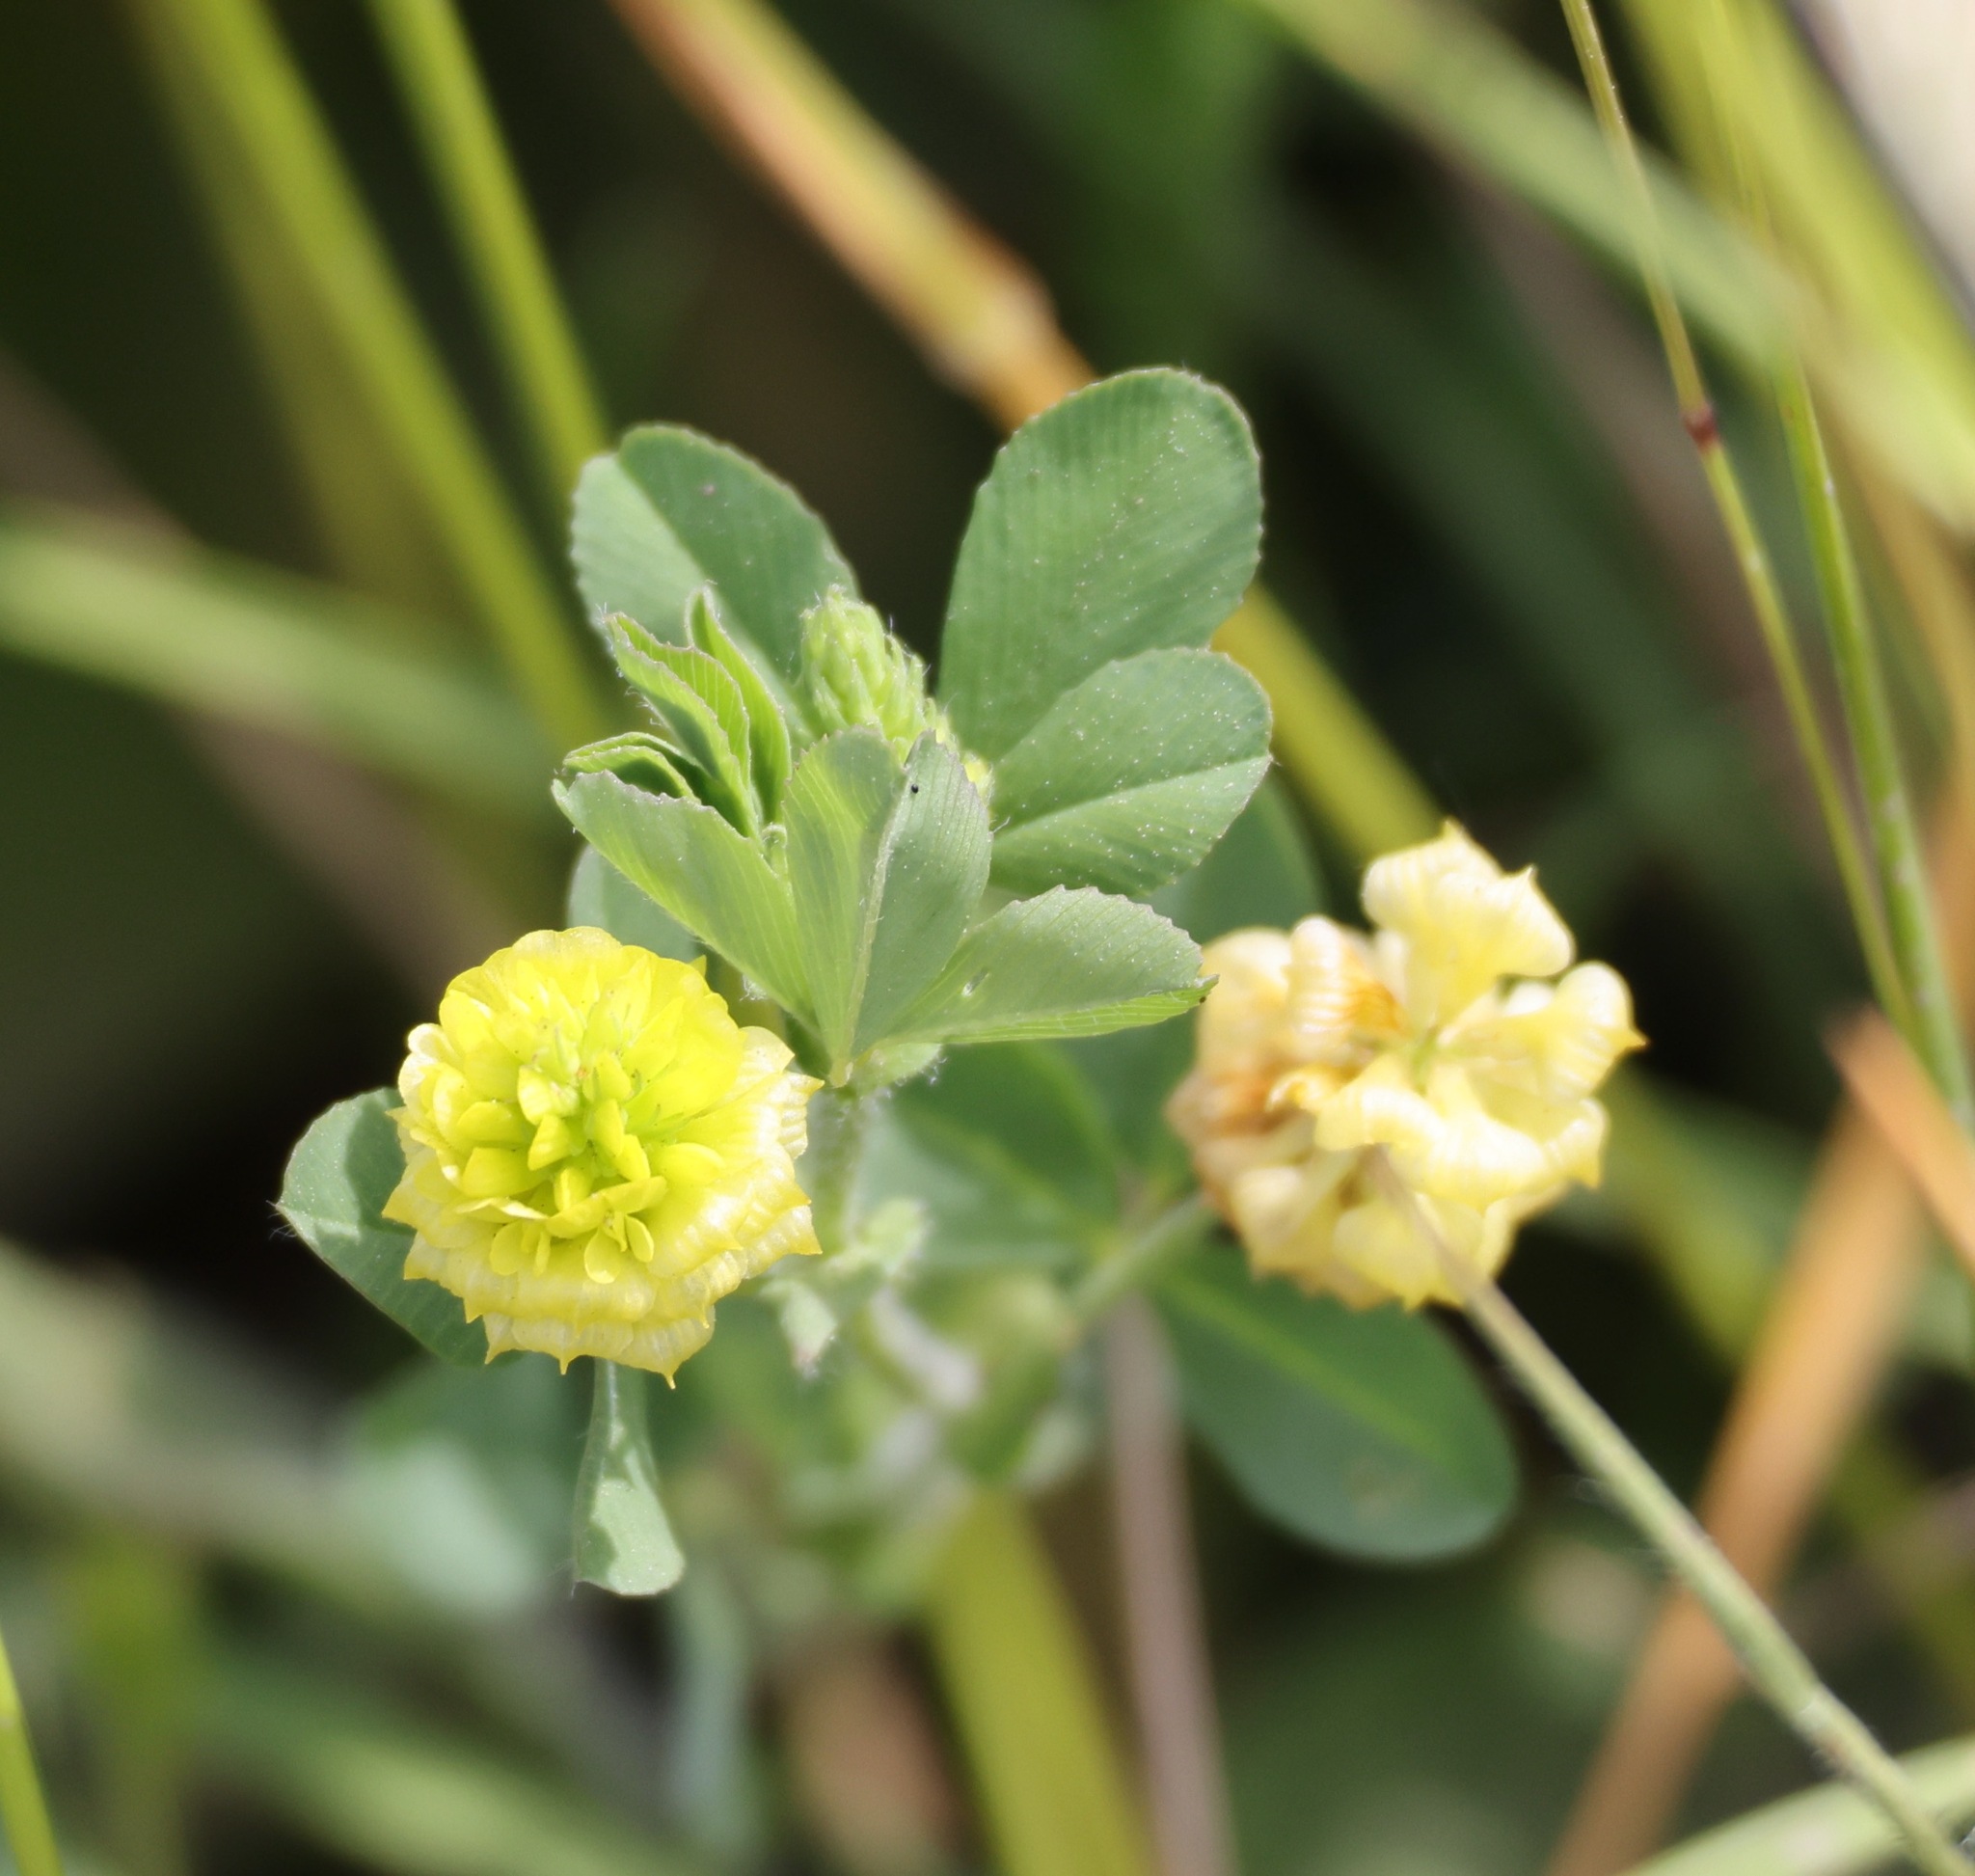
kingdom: Plantae
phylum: Tracheophyta
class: Magnoliopsida
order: Fabales
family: Fabaceae
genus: Trifolium
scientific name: Trifolium campestre
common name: Field clover
